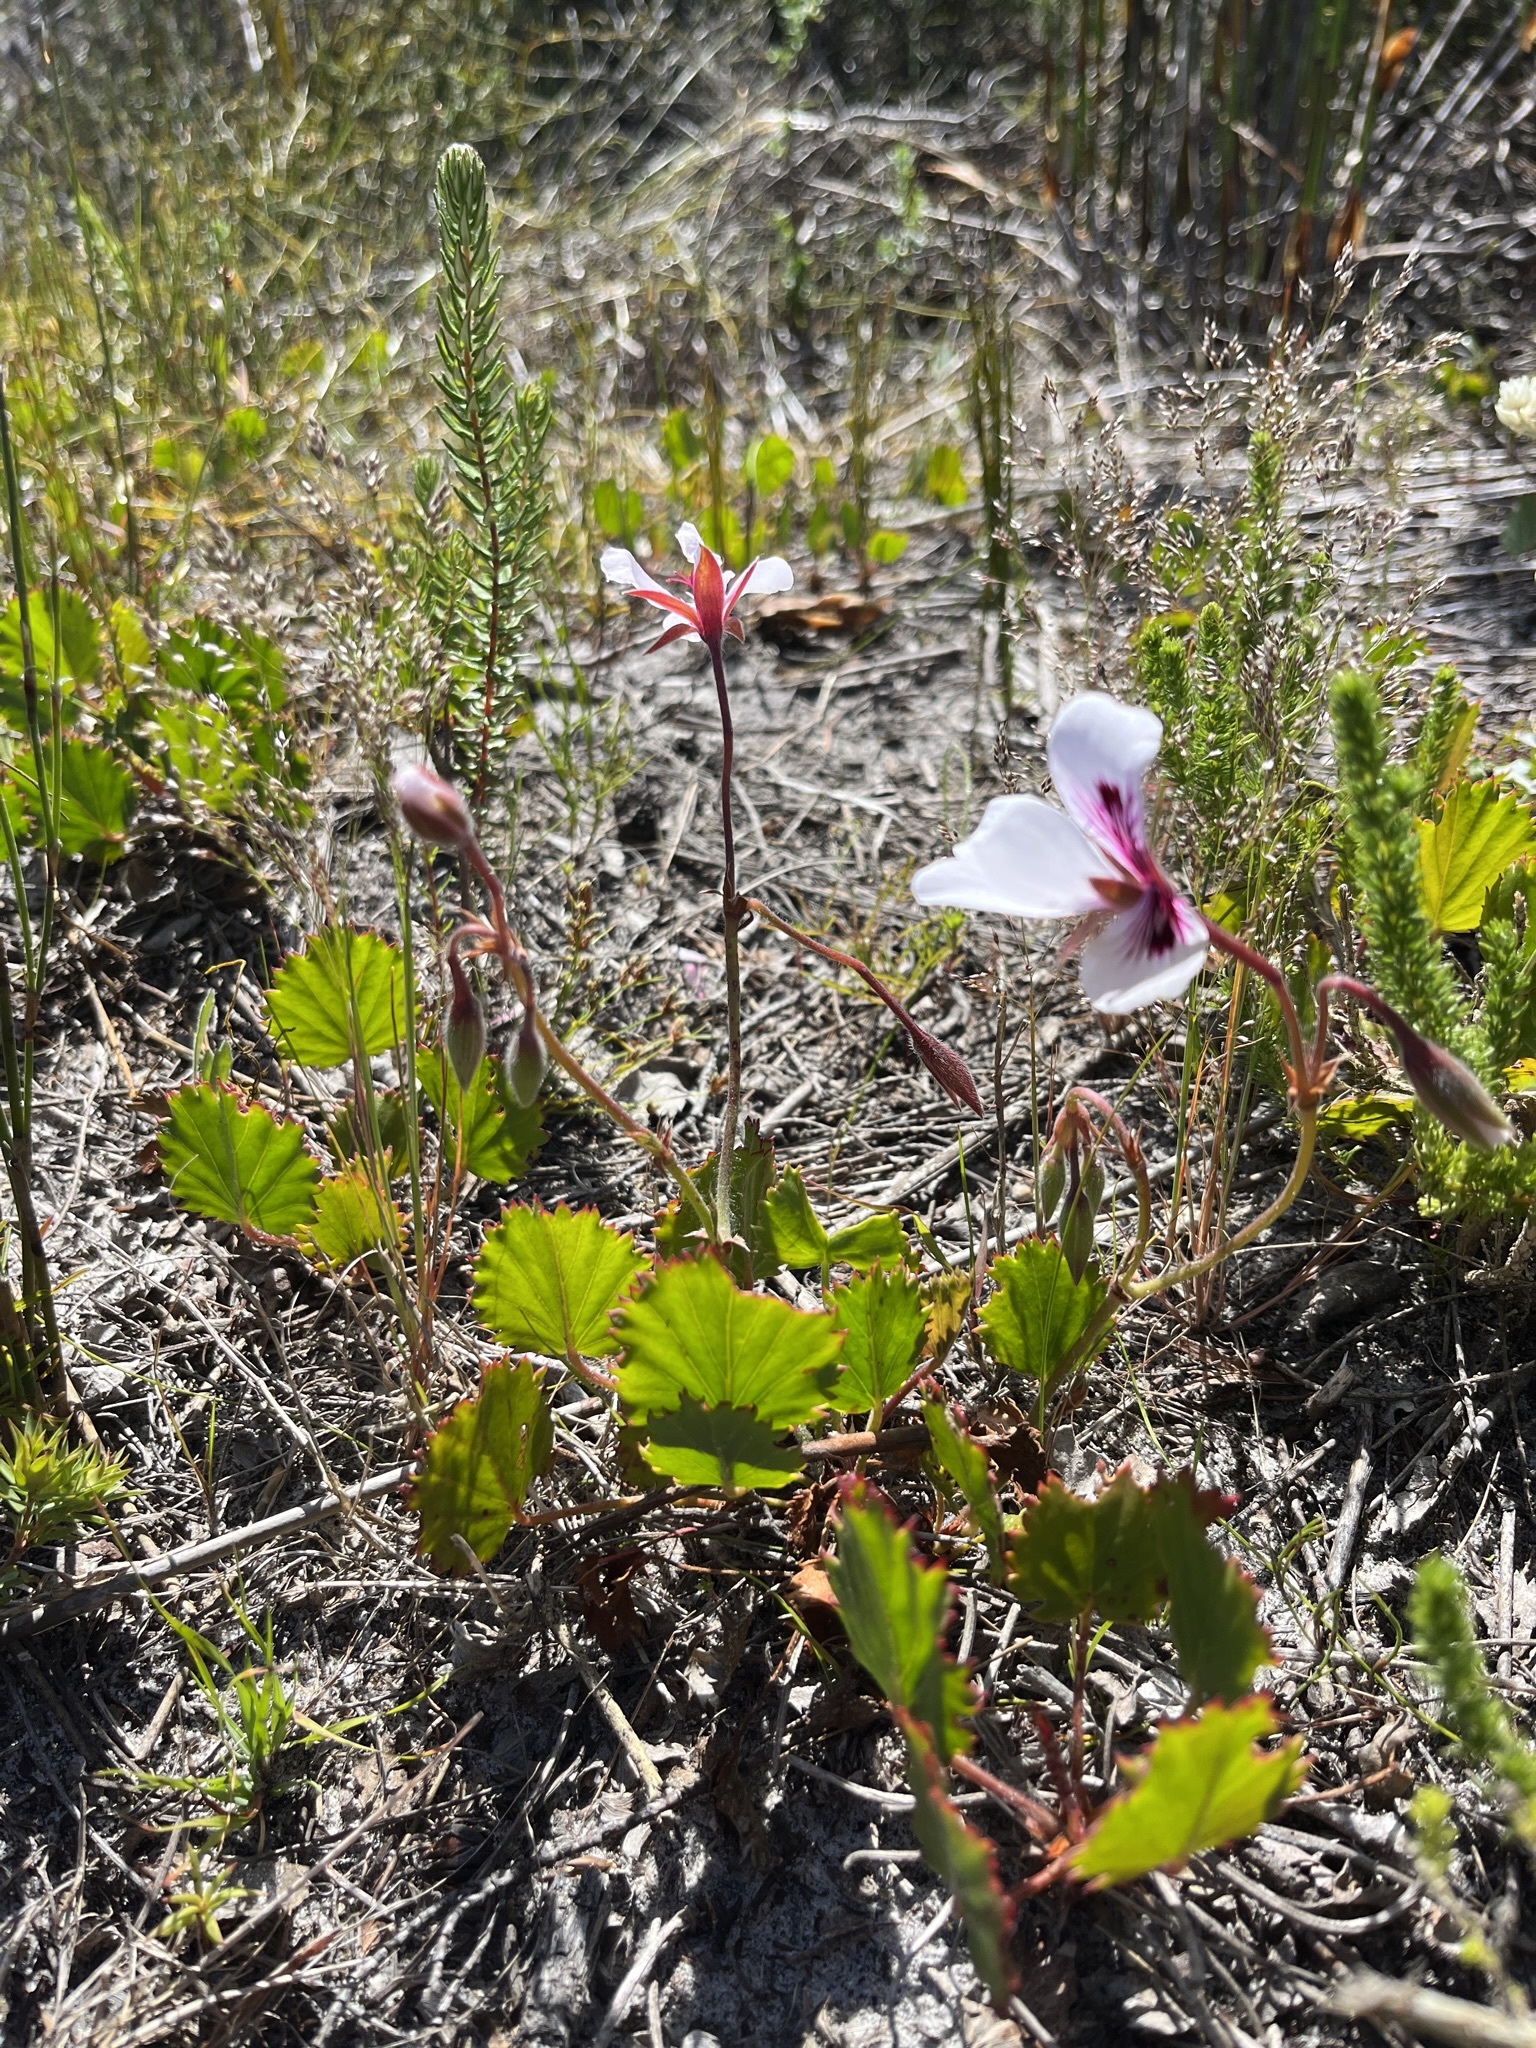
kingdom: Plantae
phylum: Tracheophyta
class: Magnoliopsida
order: Geraniales
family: Geraniaceae
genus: Pelargonium
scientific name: Pelargonium elegans
